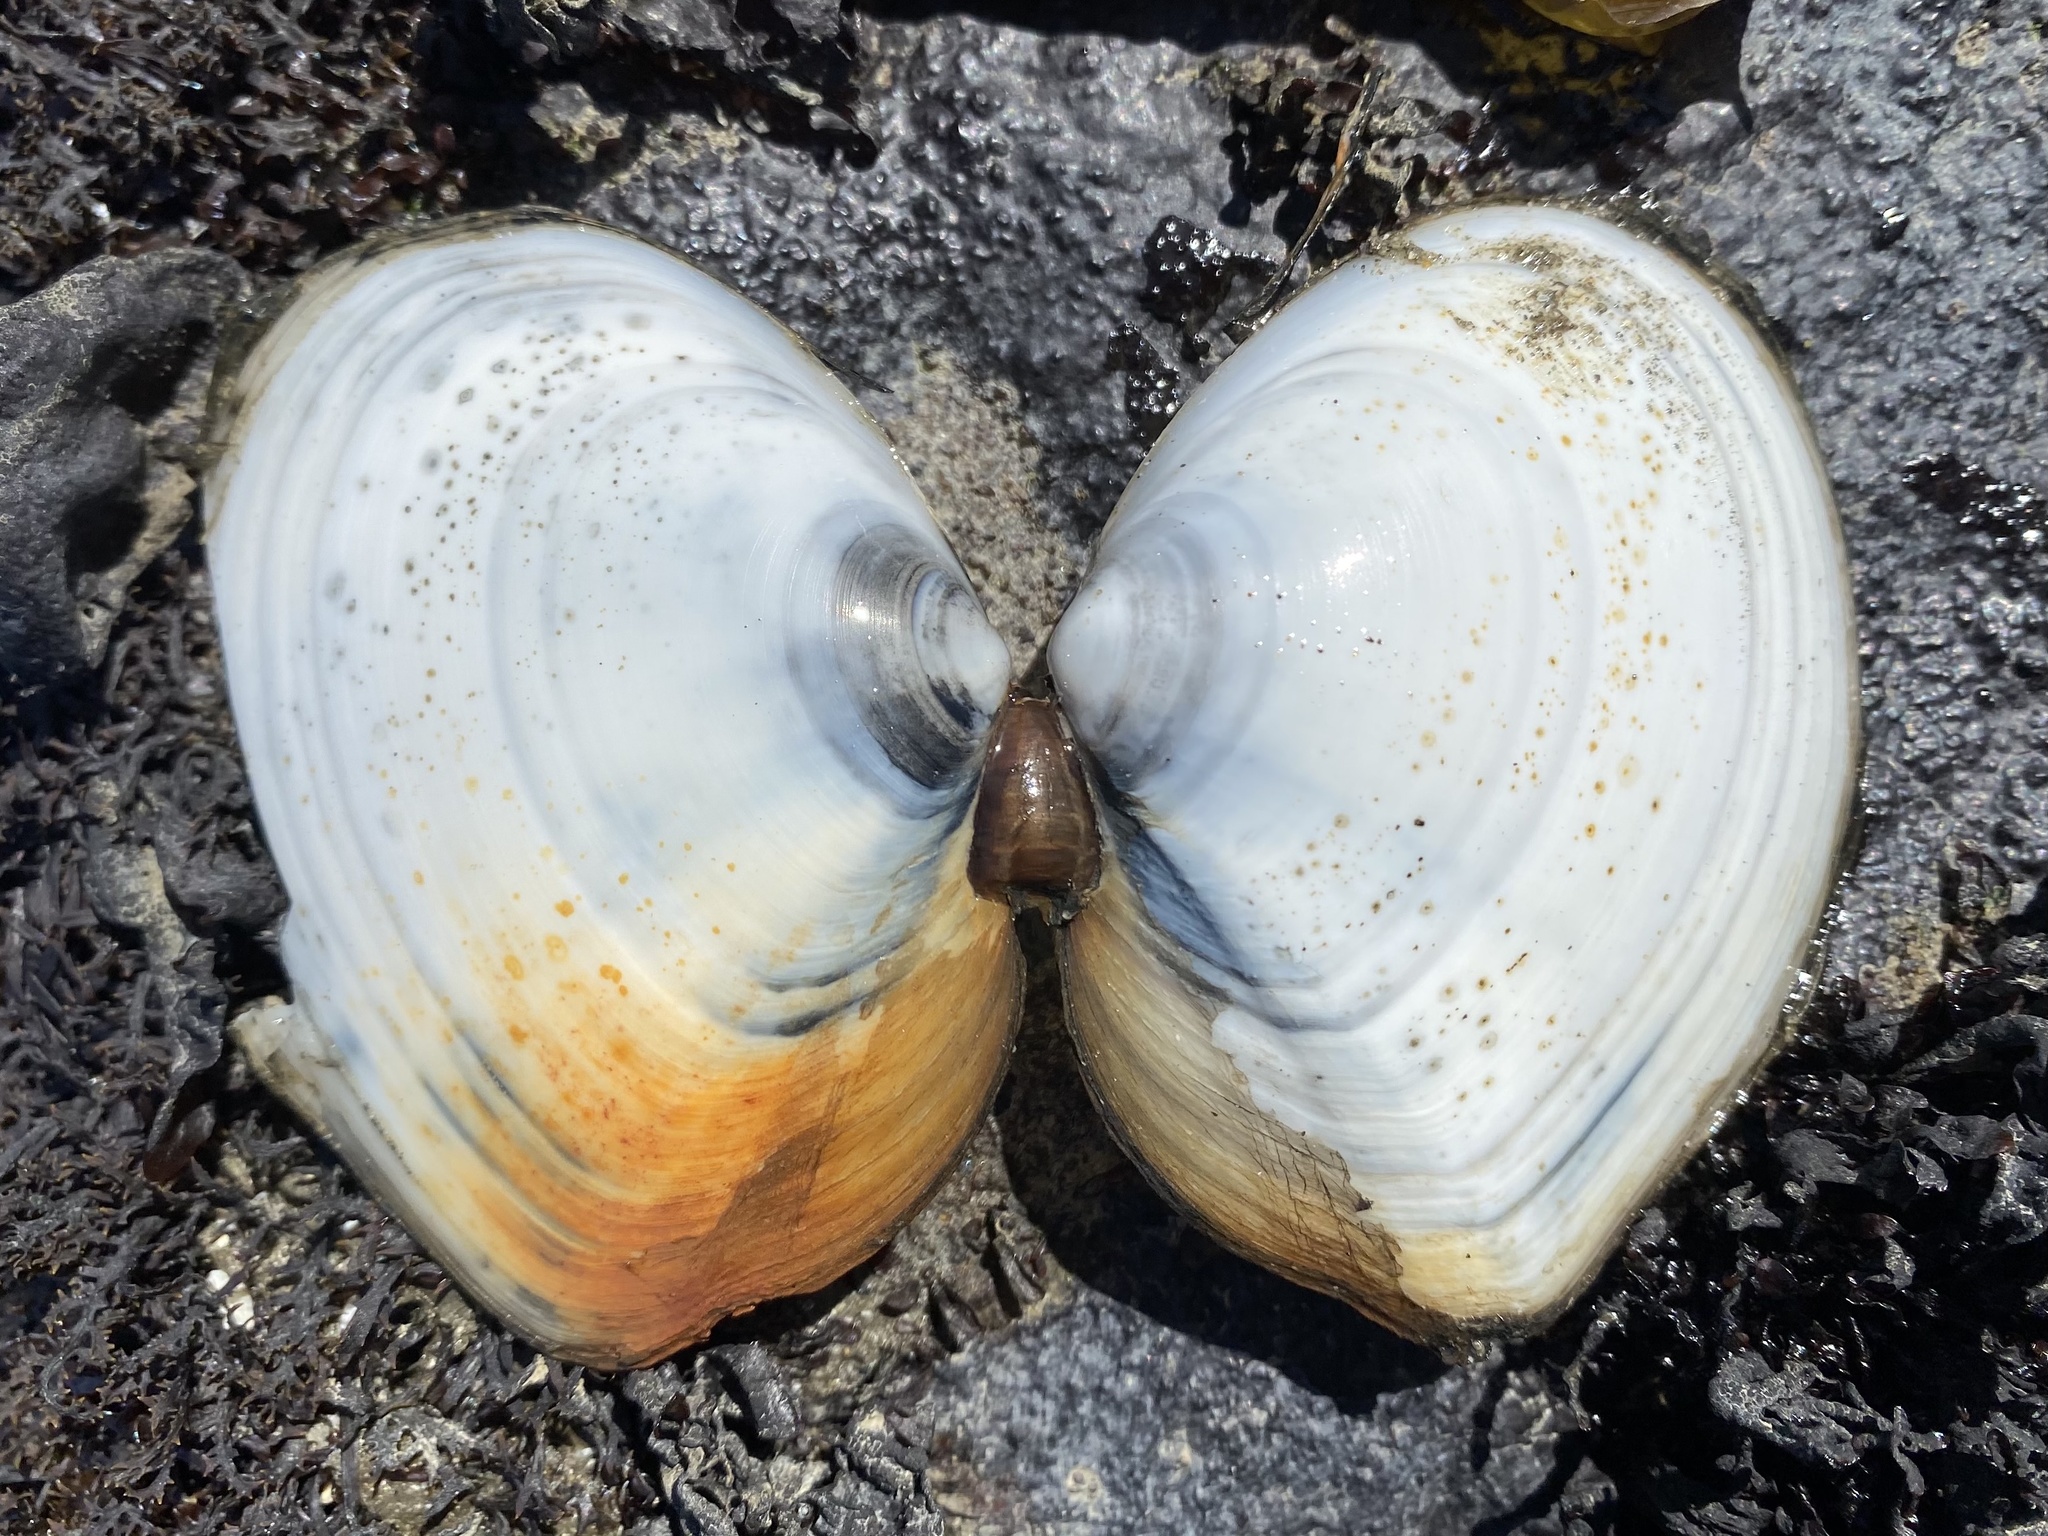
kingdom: Animalia
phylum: Mollusca
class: Bivalvia
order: Cardiida
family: Tellinidae
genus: Rexithaerus
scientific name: Rexithaerus secta
